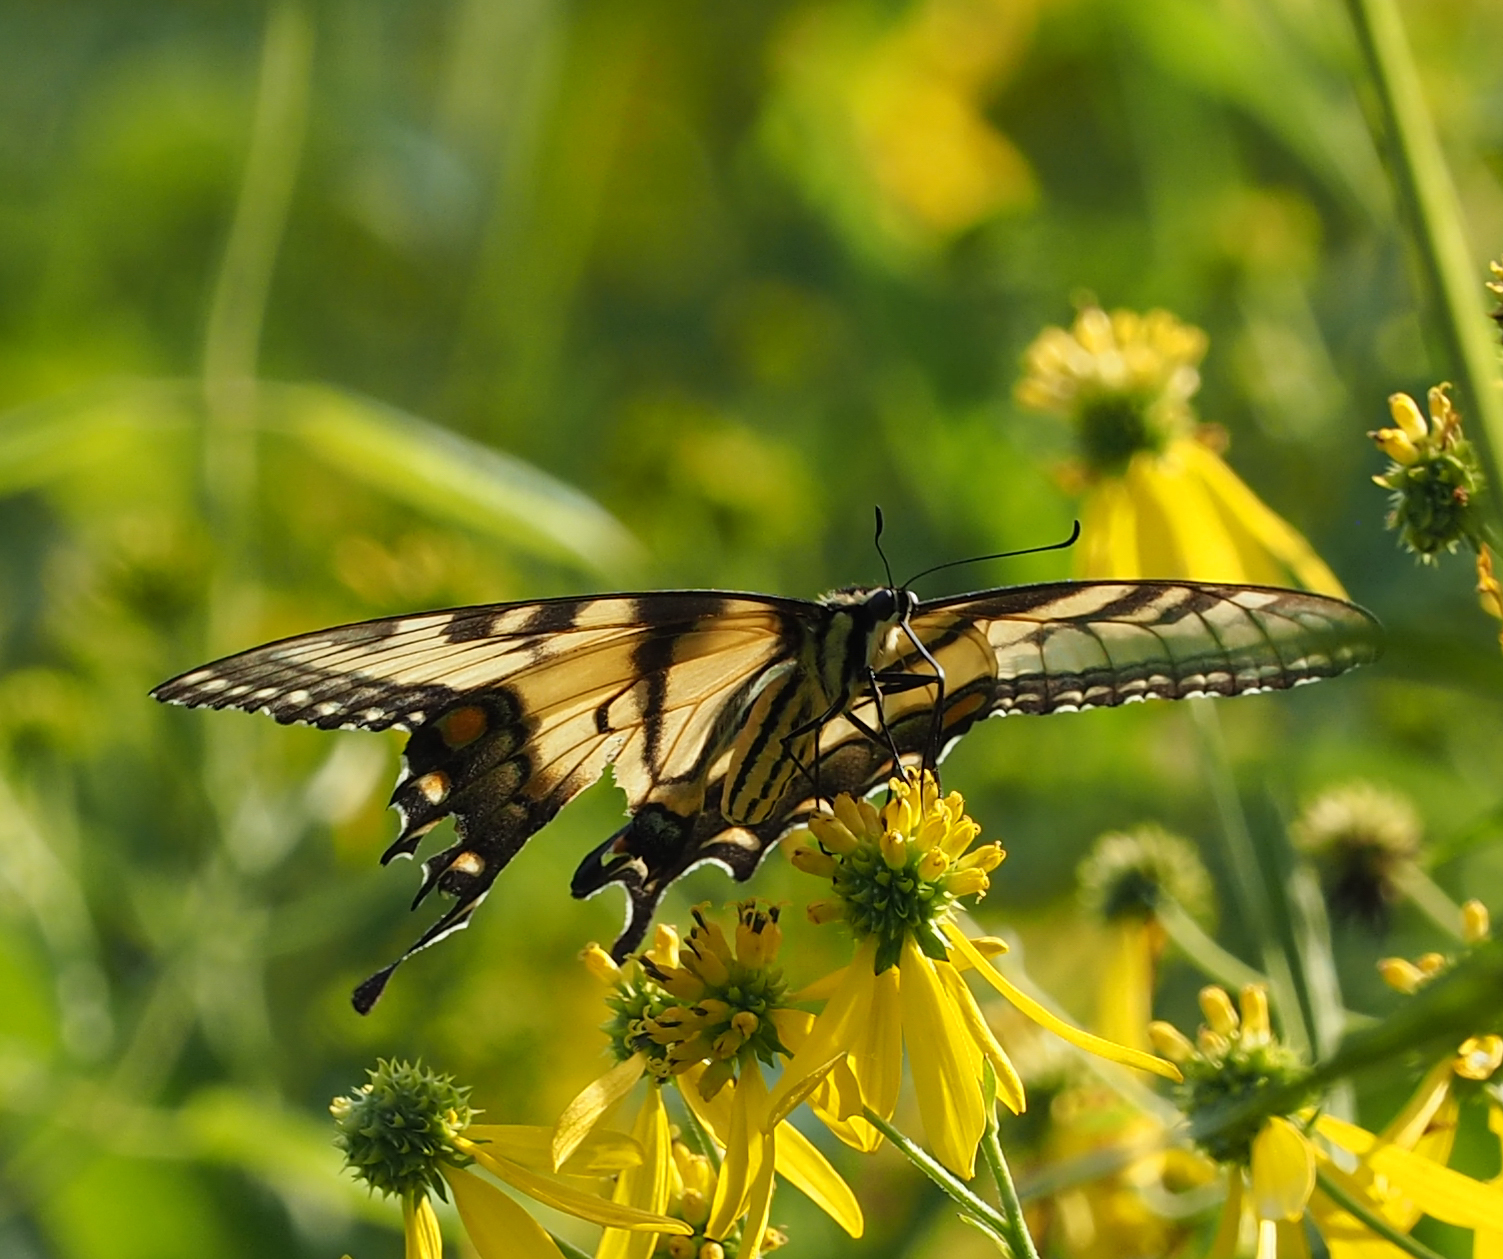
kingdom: Animalia
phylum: Arthropoda
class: Insecta
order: Lepidoptera
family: Papilionidae
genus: Papilio
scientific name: Papilio glaucus
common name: Tiger swallowtail
